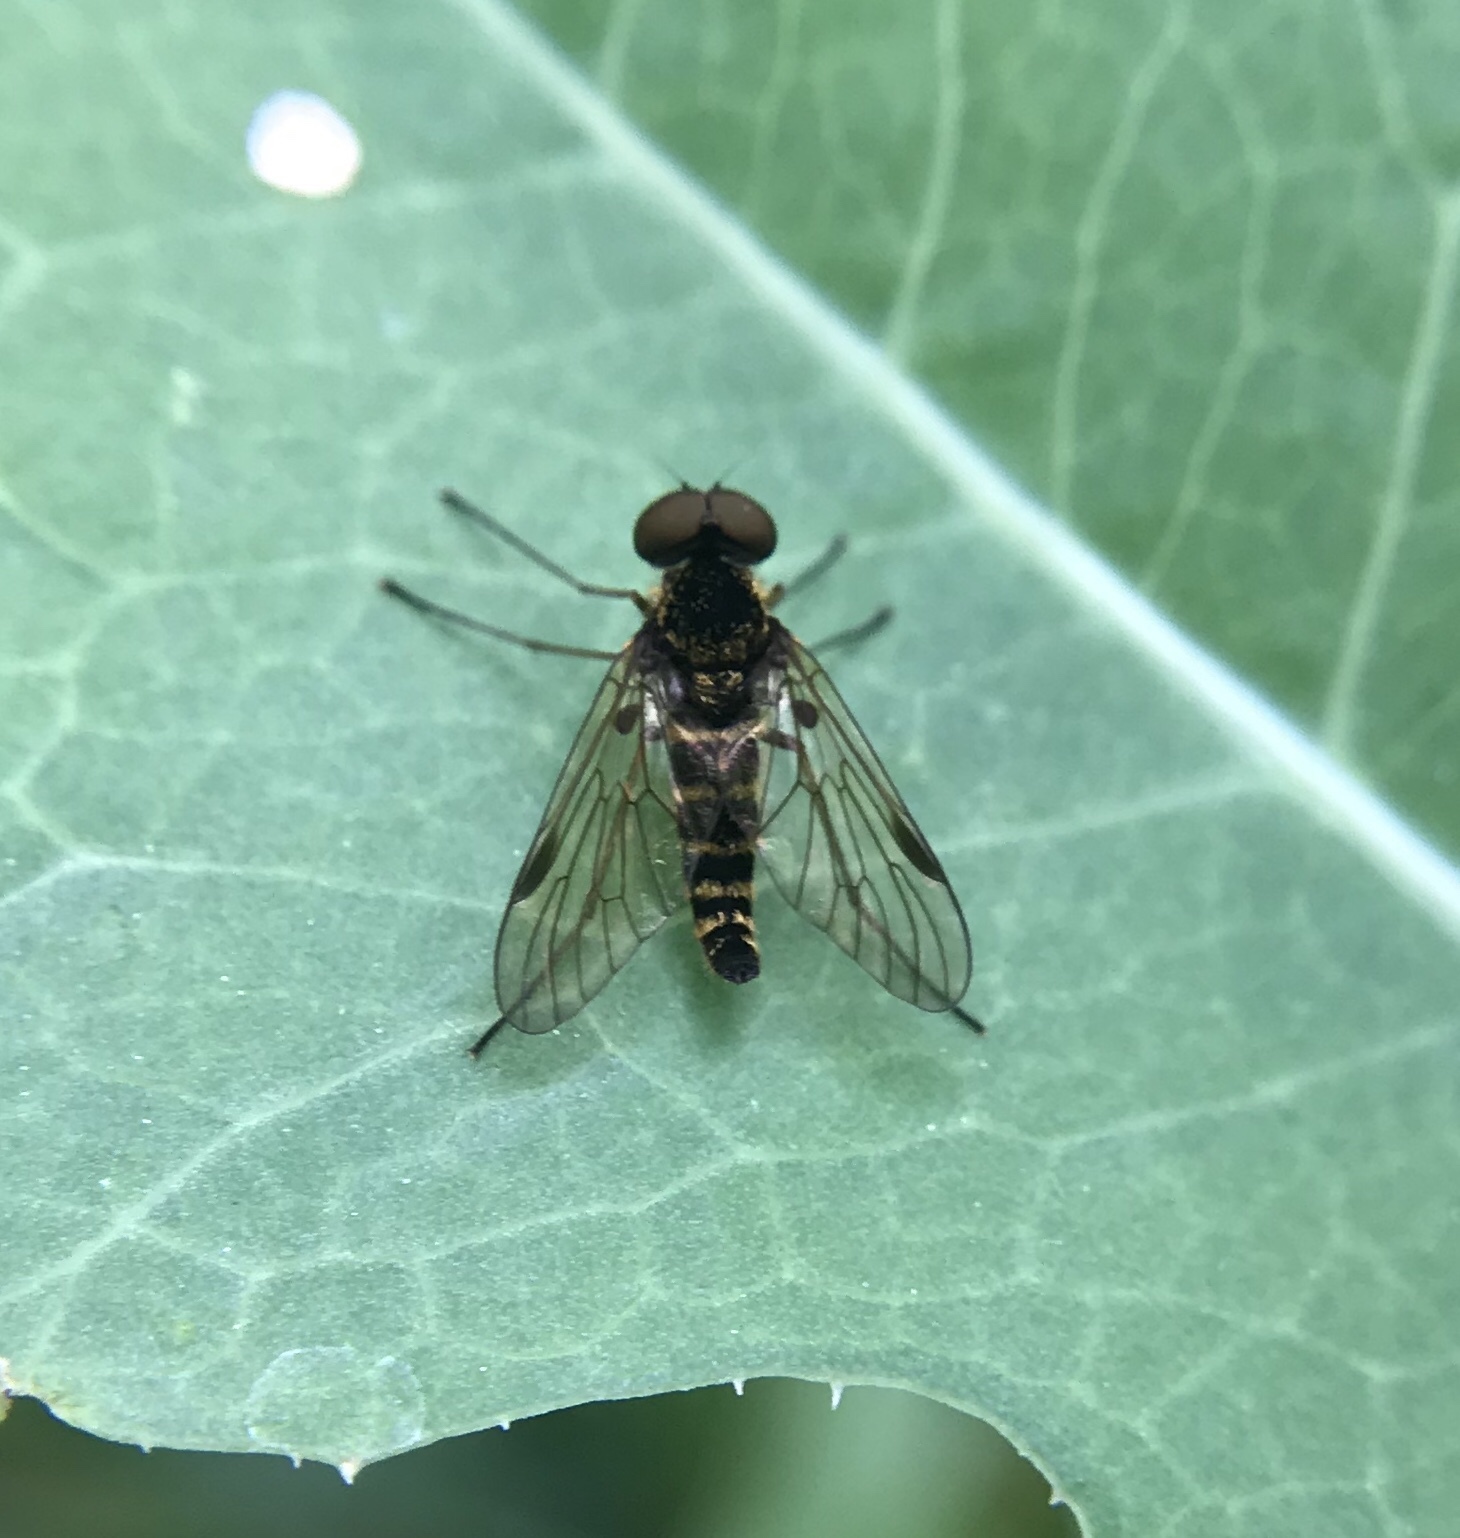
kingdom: Animalia
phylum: Arthropoda
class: Insecta
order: Diptera
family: Rhagionidae
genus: Chrysopilus
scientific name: Chrysopilus fasciatus
